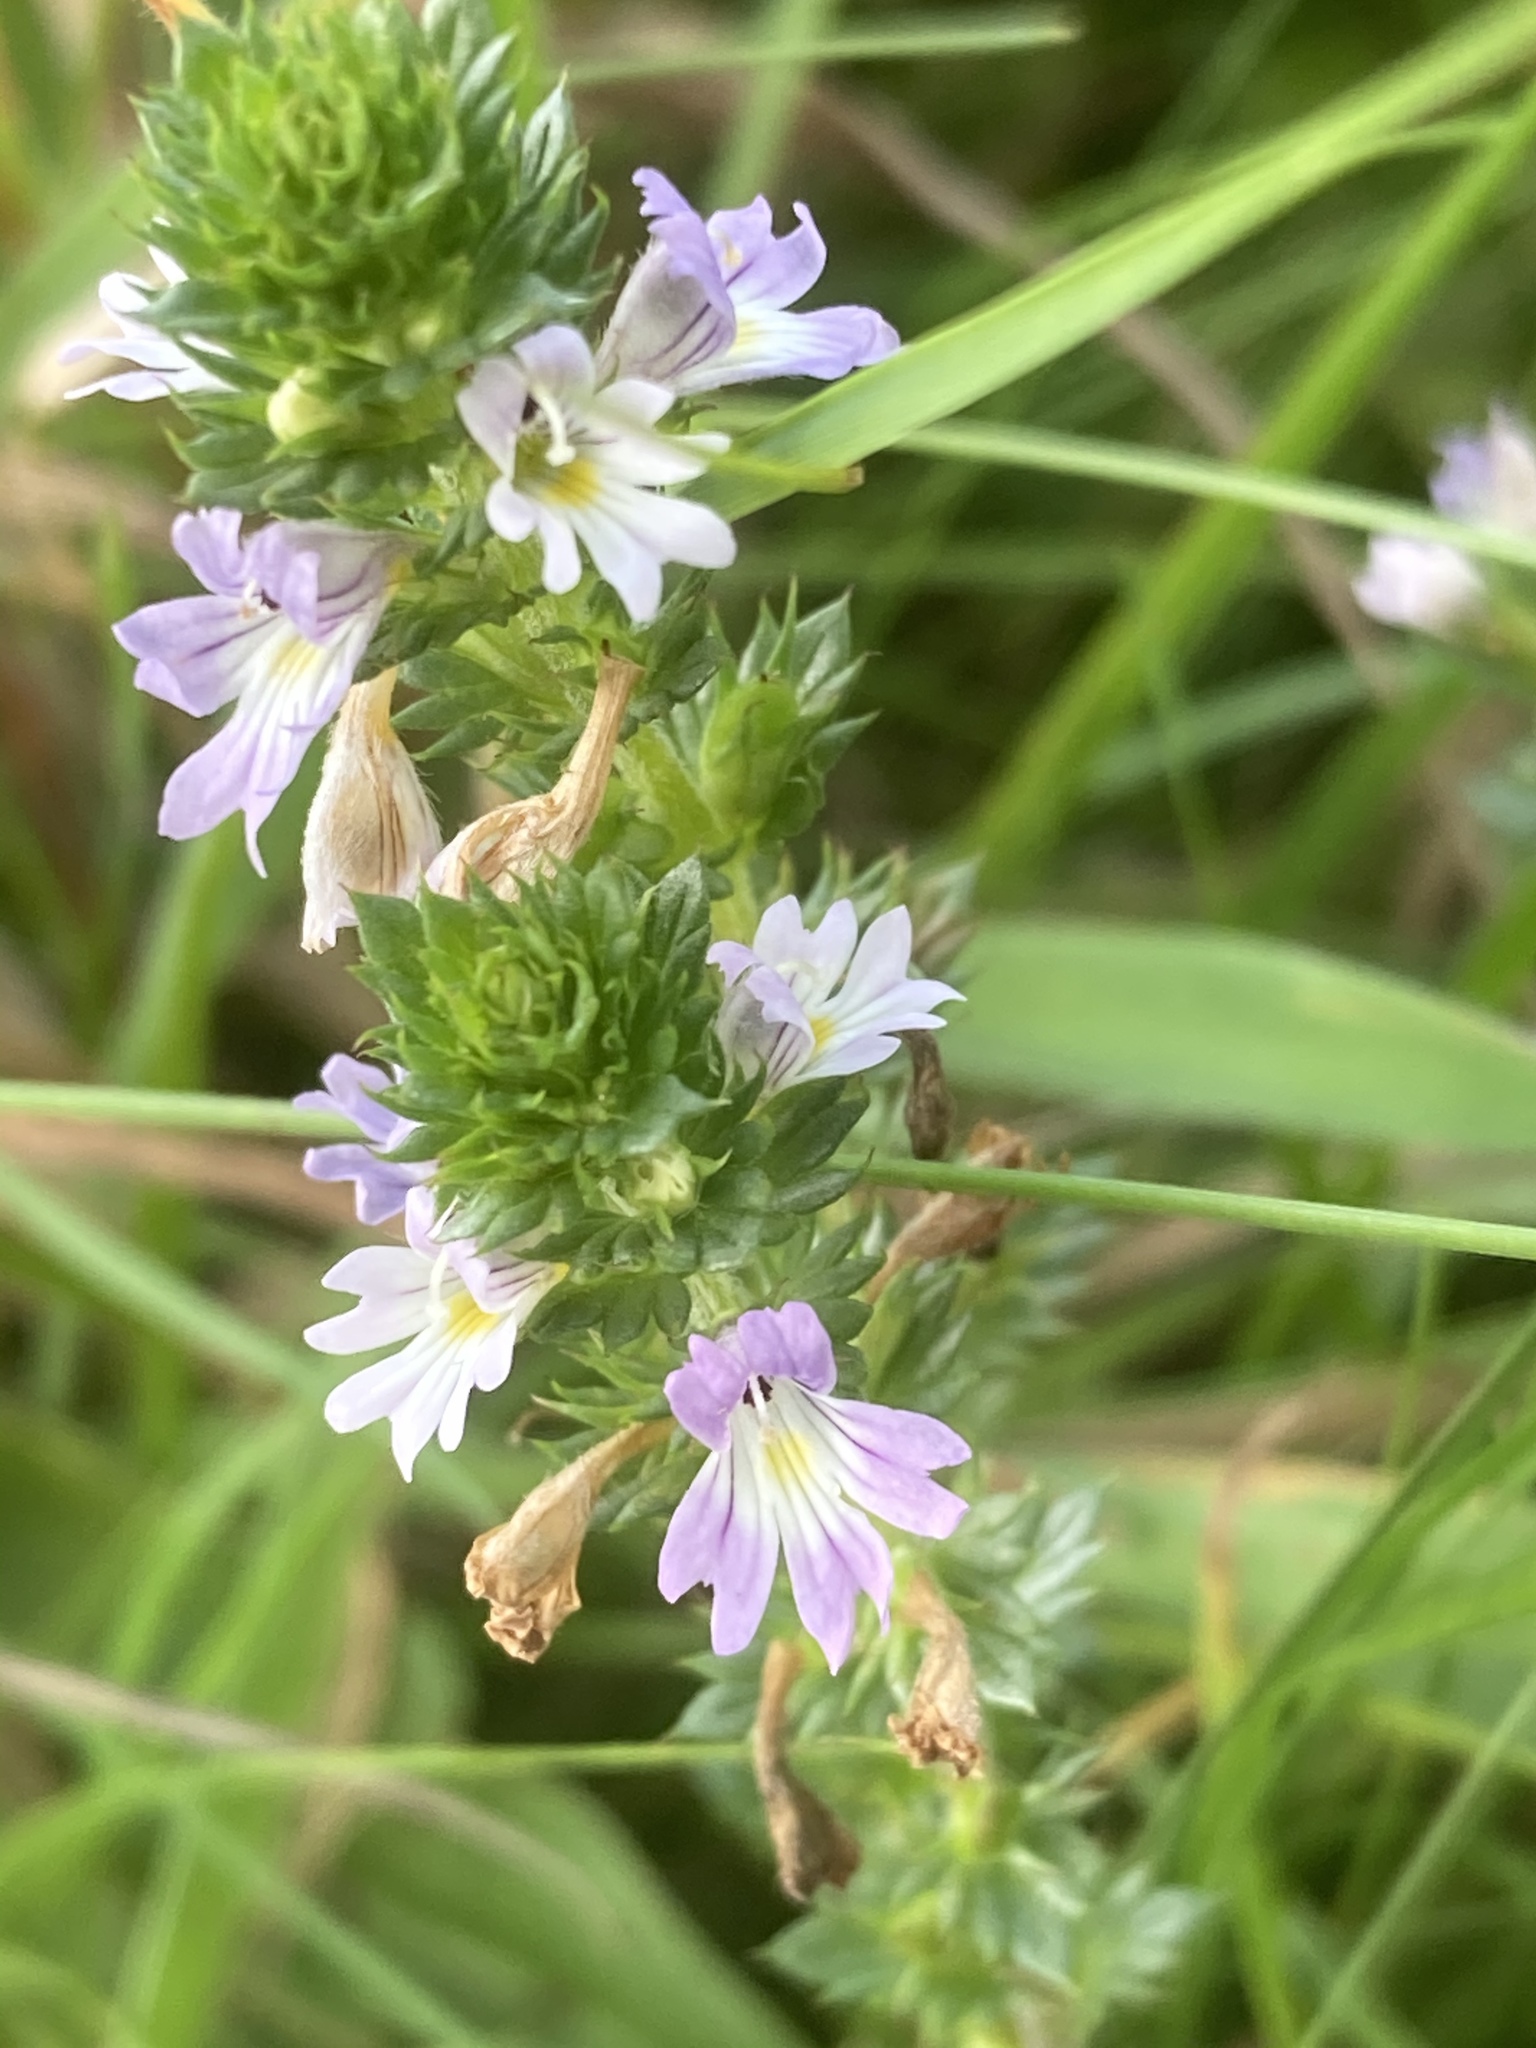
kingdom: Plantae
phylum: Tracheophyta
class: Magnoliopsida
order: Lamiales
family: Orobanchaceae
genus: Euphrasia
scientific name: Euphrasia stricta
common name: Drug eyebright
